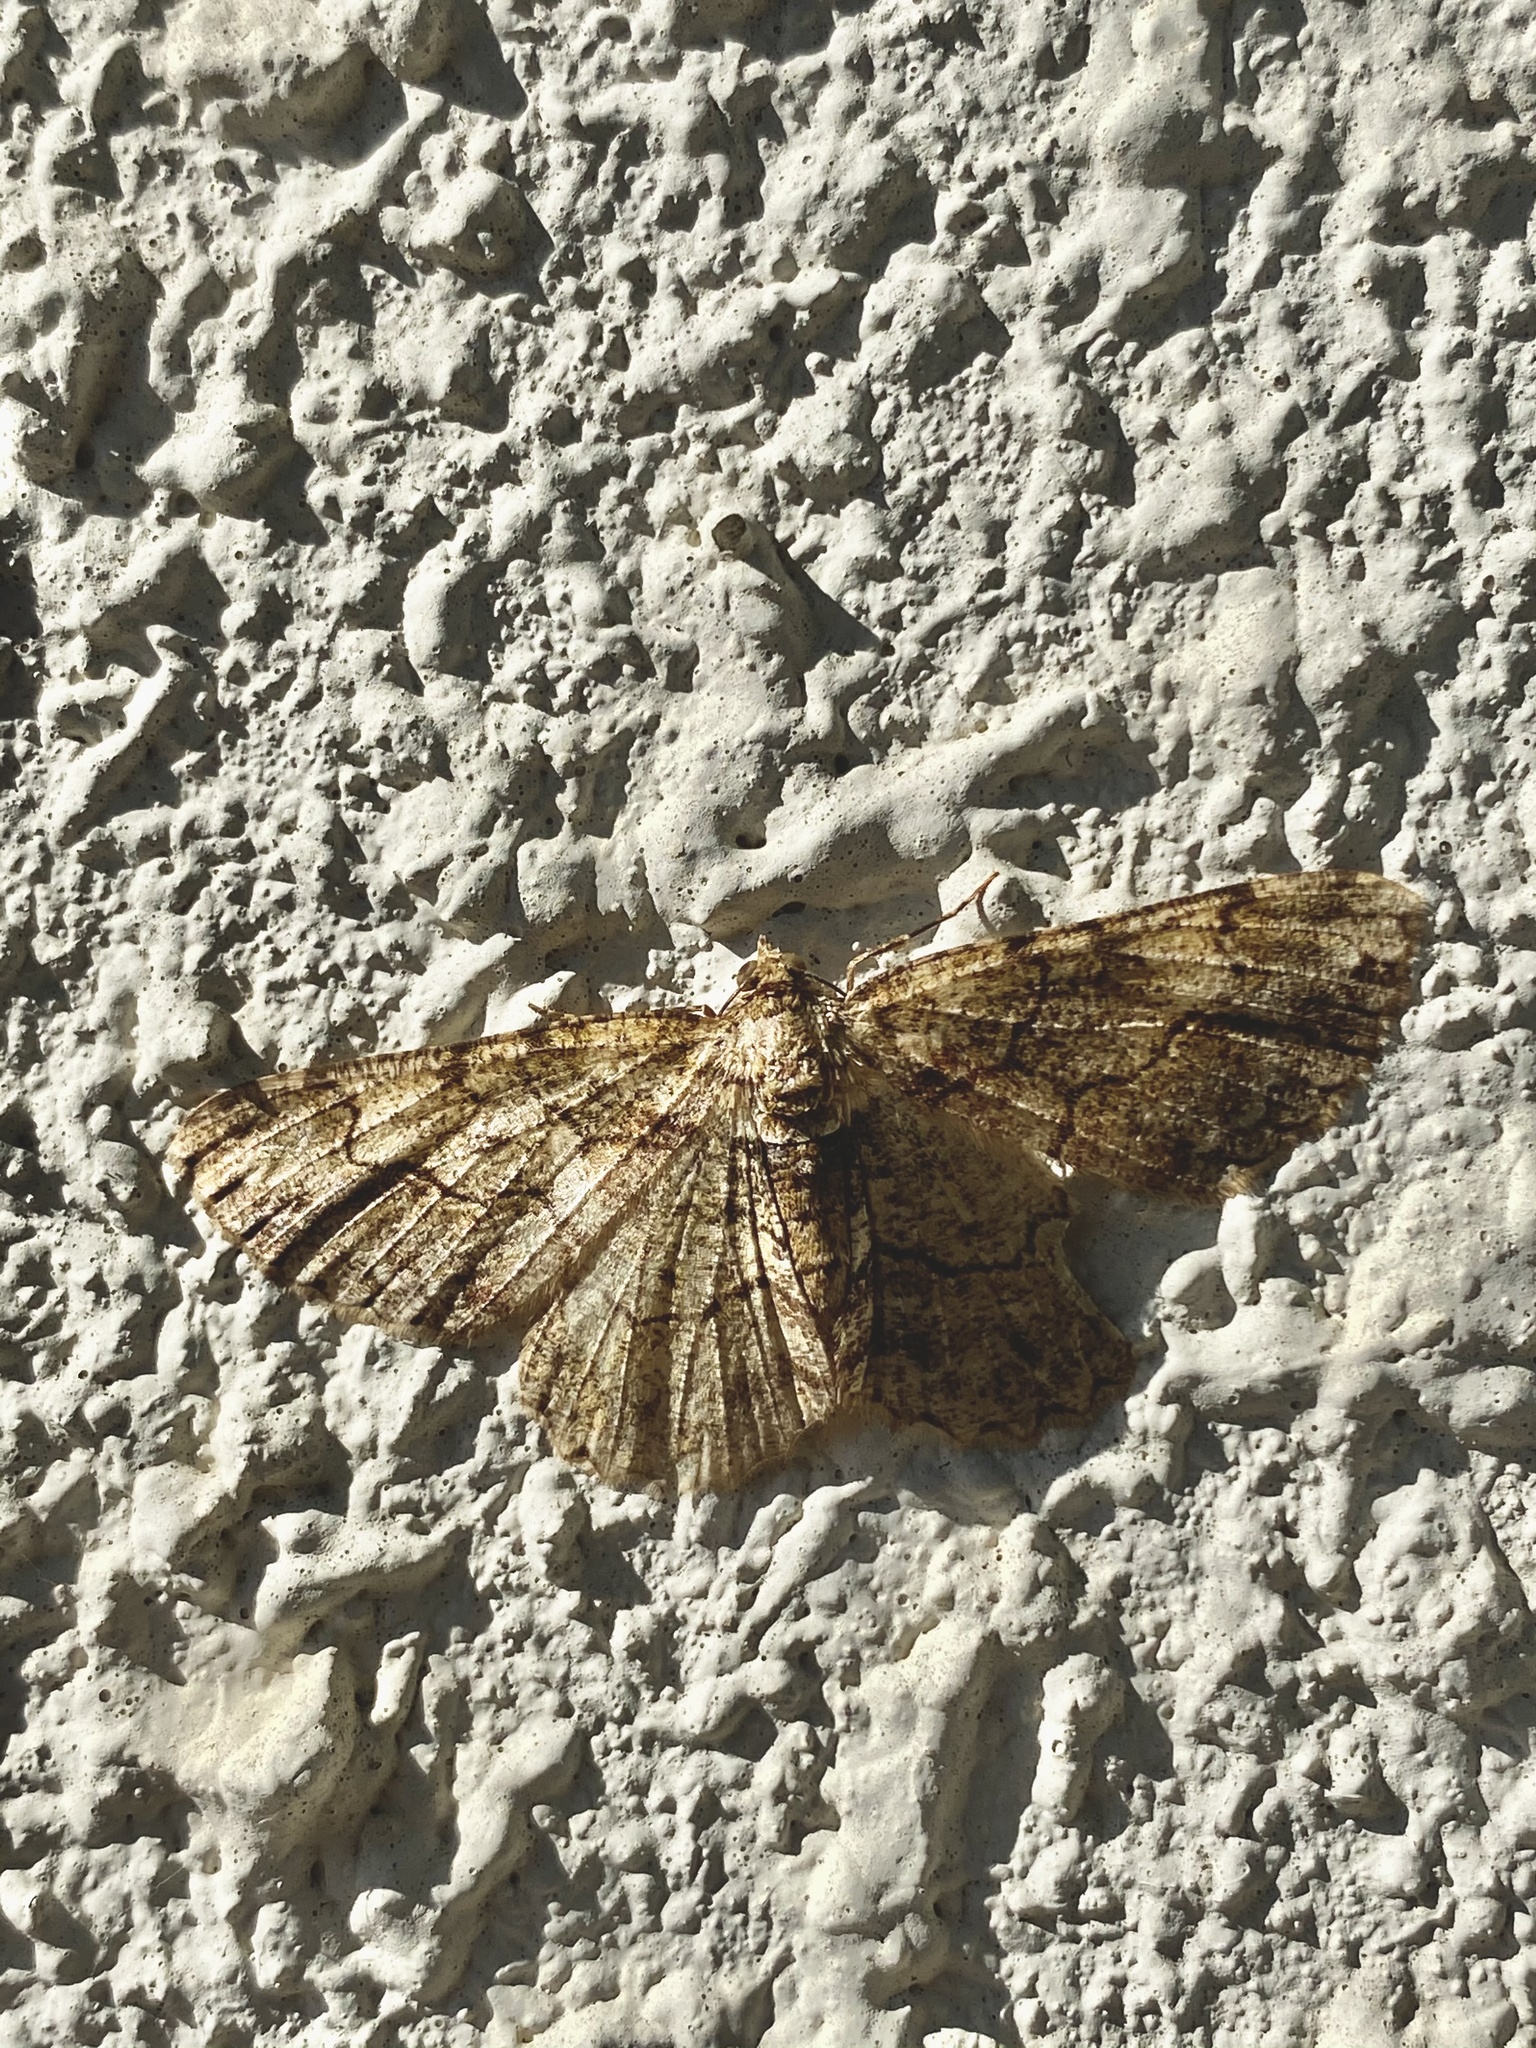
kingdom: Animalia
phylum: Arthropoda
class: Insecta
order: Lepidoptera
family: Geometridae
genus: Paradarisa
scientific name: Paradarisa chloauges
